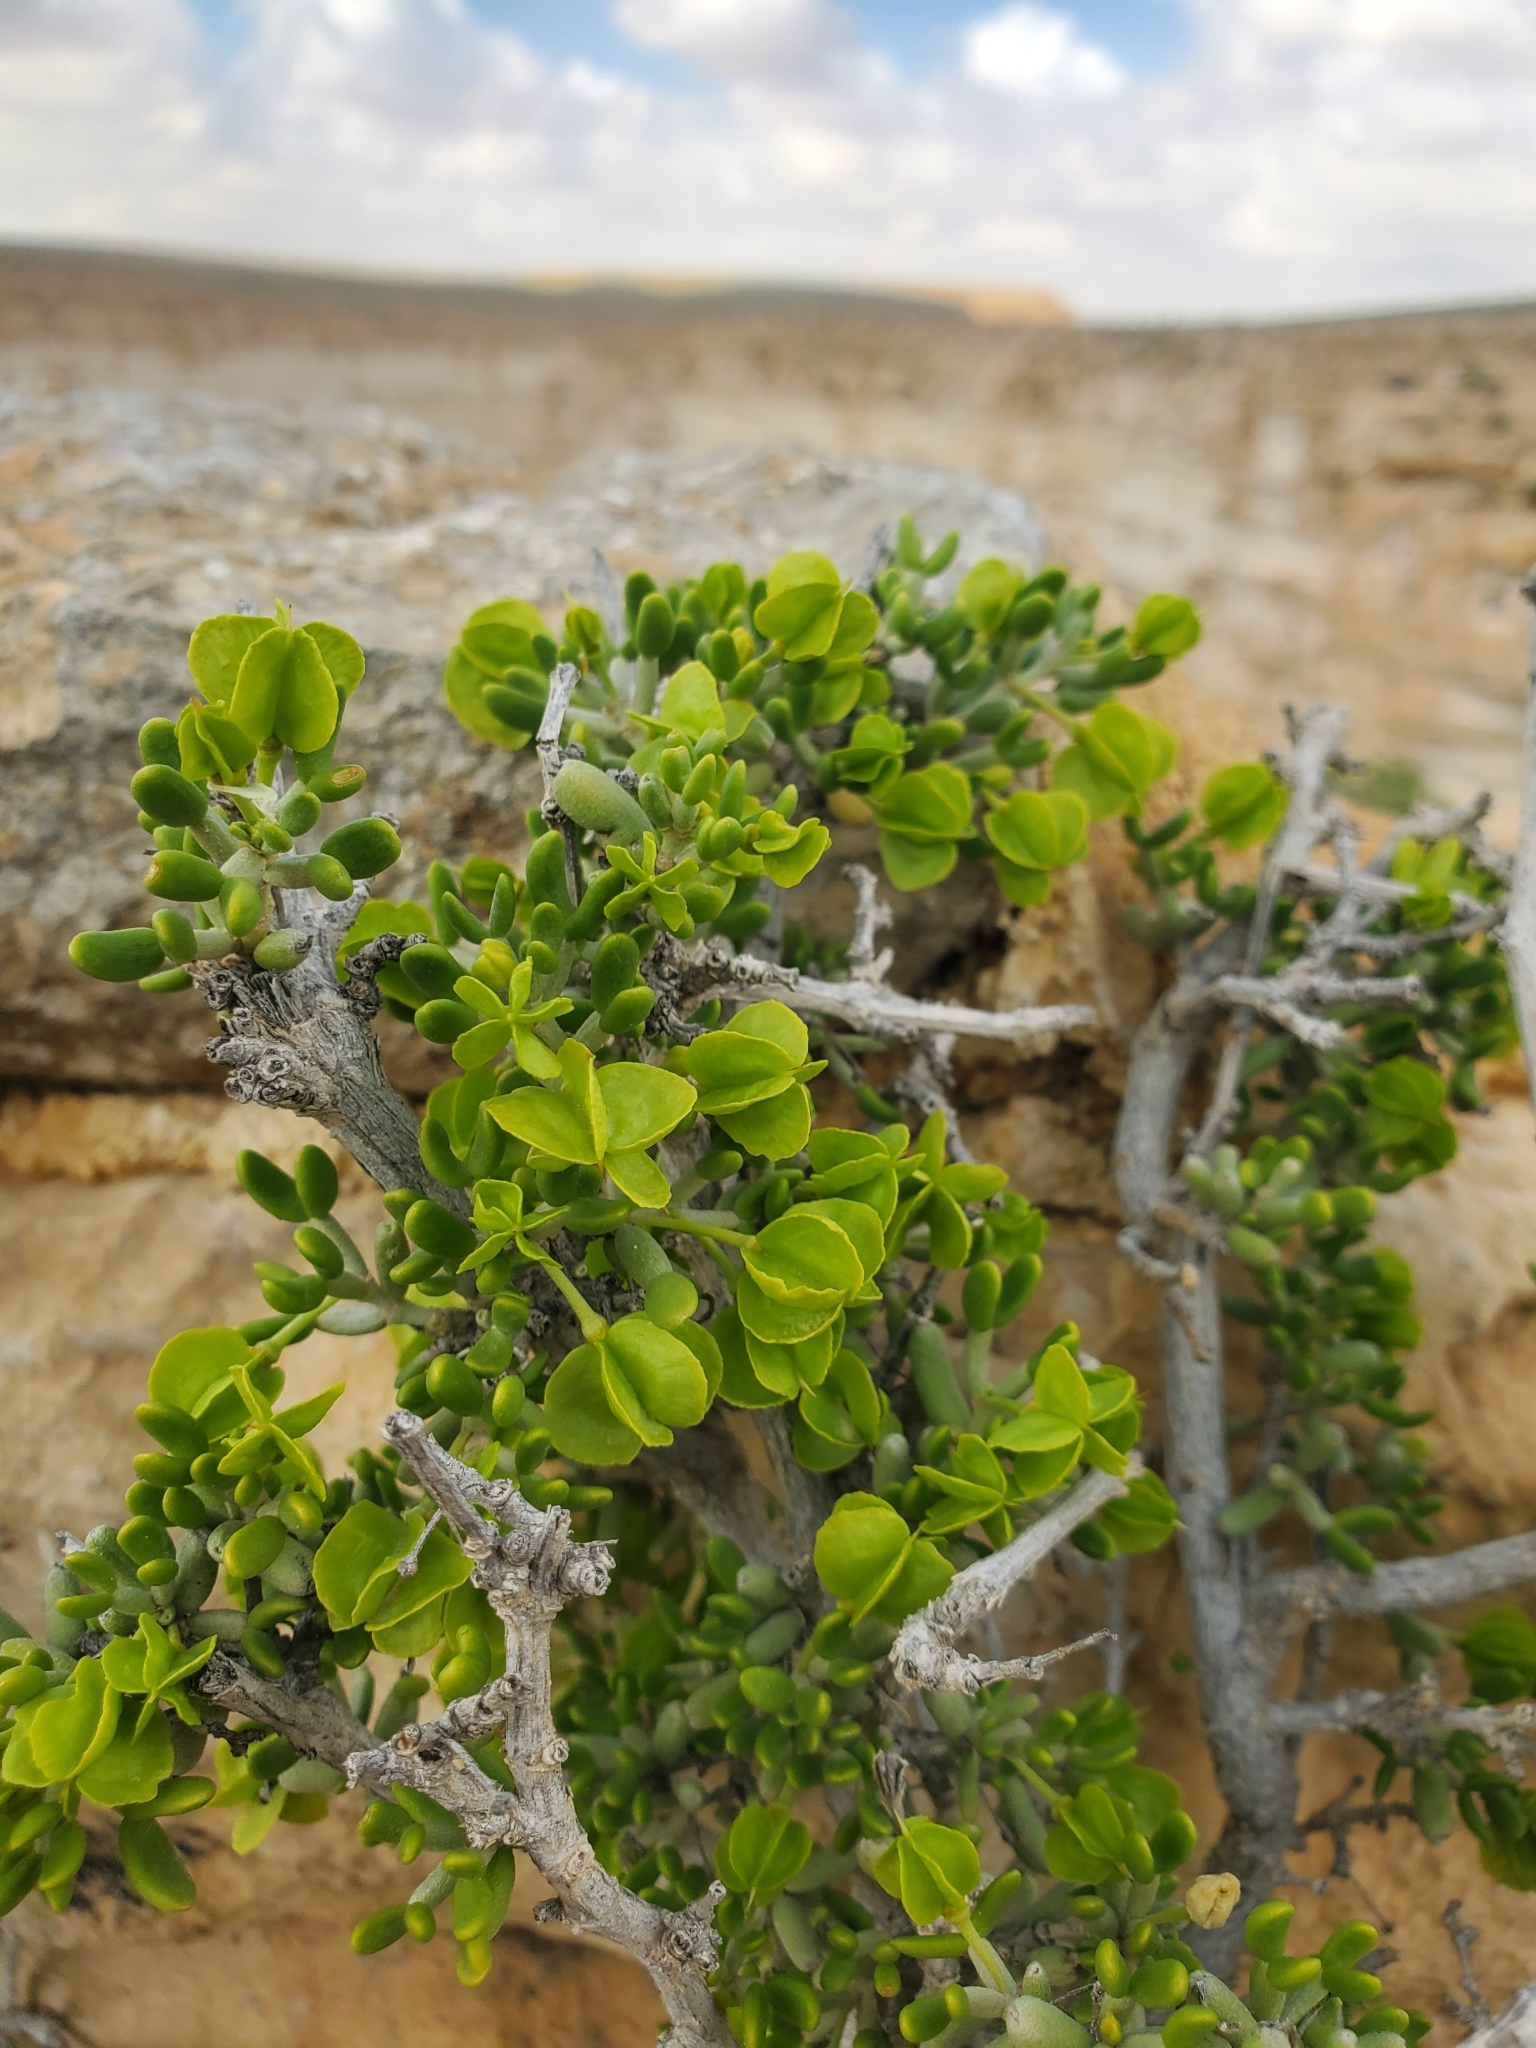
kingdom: Plantae
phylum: Tracheophyta
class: Magnoliopsida
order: Zygophyllales
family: Zygophyllaceae
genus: Tetraena
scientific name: Tetraena dumosa
